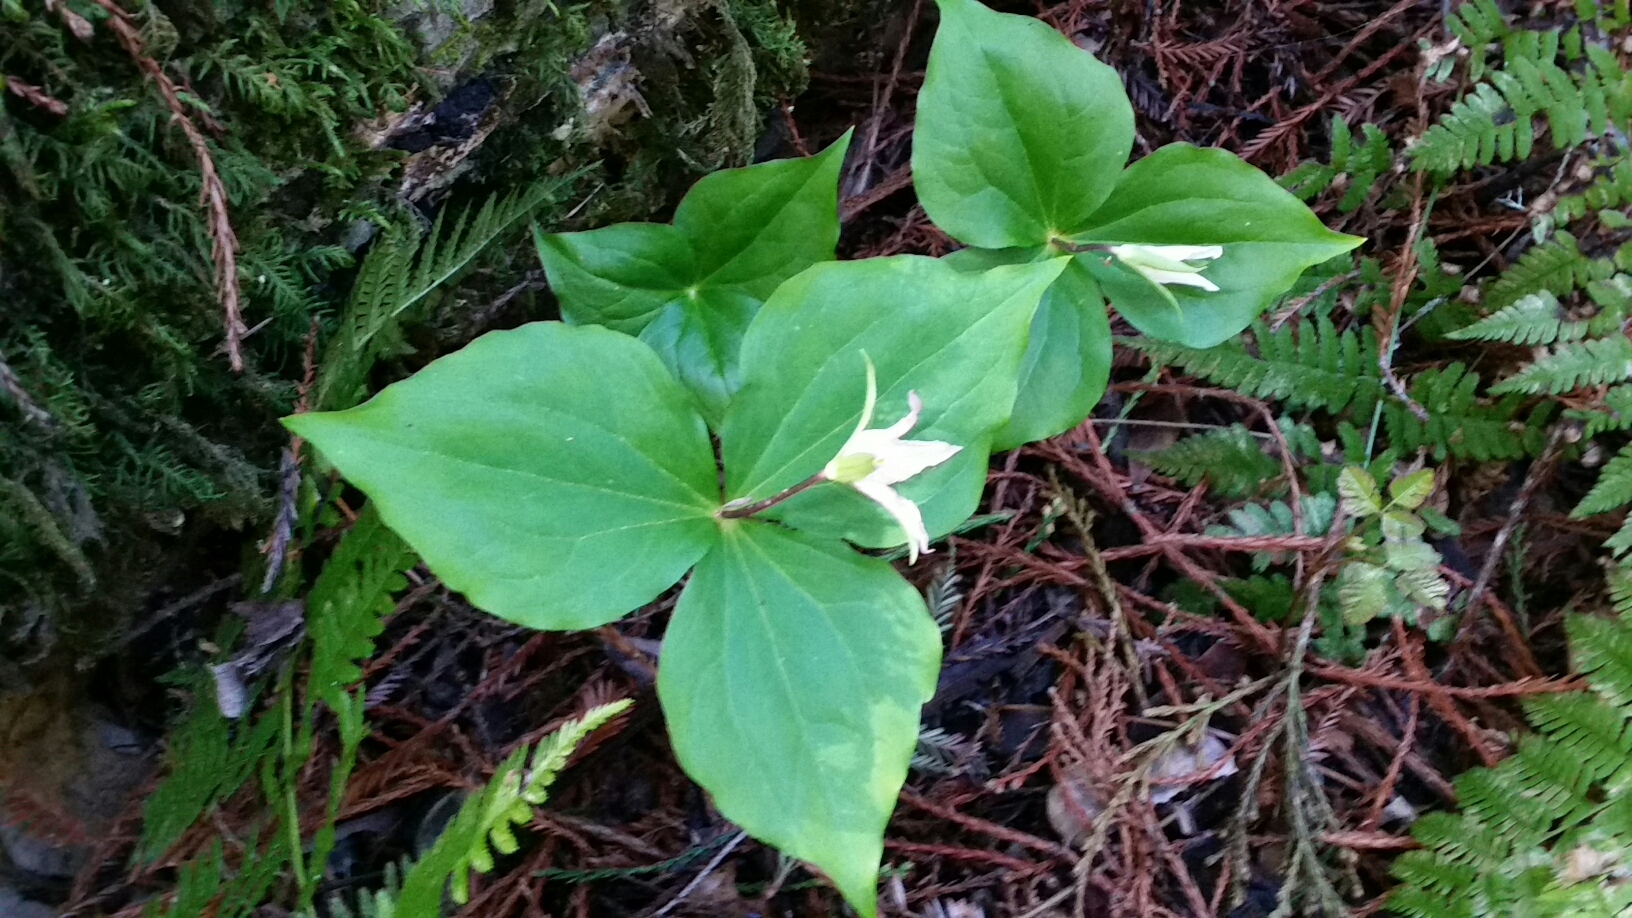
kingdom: Plantae
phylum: Tracheophyta
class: Liliopsida
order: Liliales
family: Melanthiaceae
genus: Trillium
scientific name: Trillium ovatum
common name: Pacific trillium
